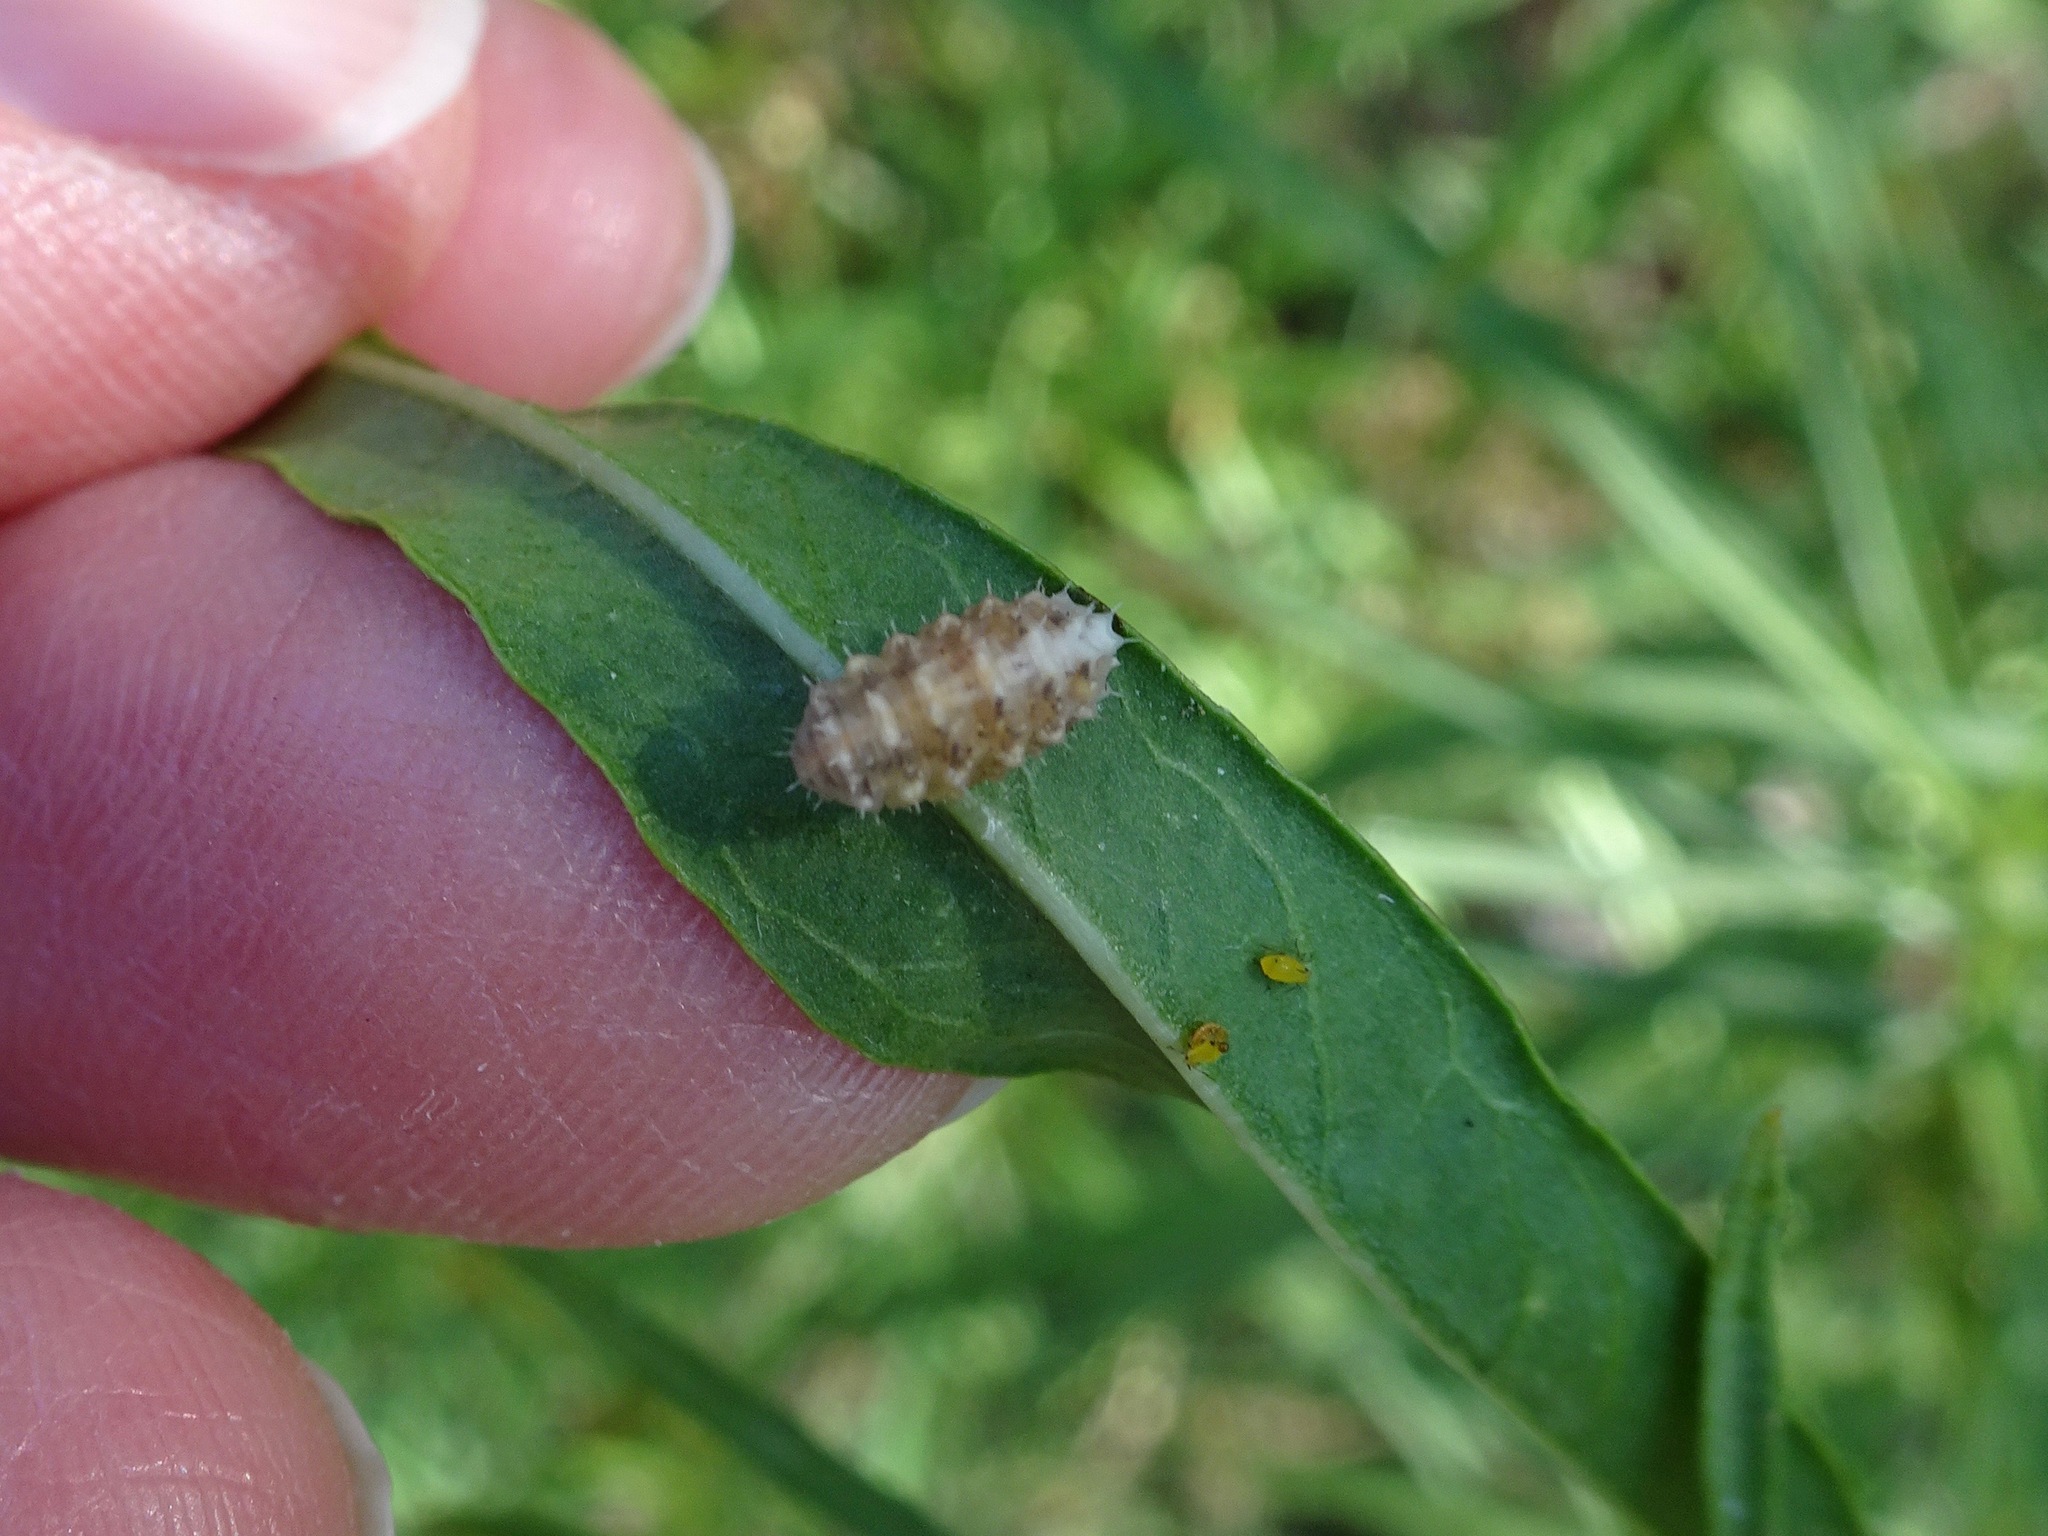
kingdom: Animalia
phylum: Arthropoda
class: Insecta
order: Diptera
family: Syrphidae
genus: Dioprosopa
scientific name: Dioprosopa clavatus
